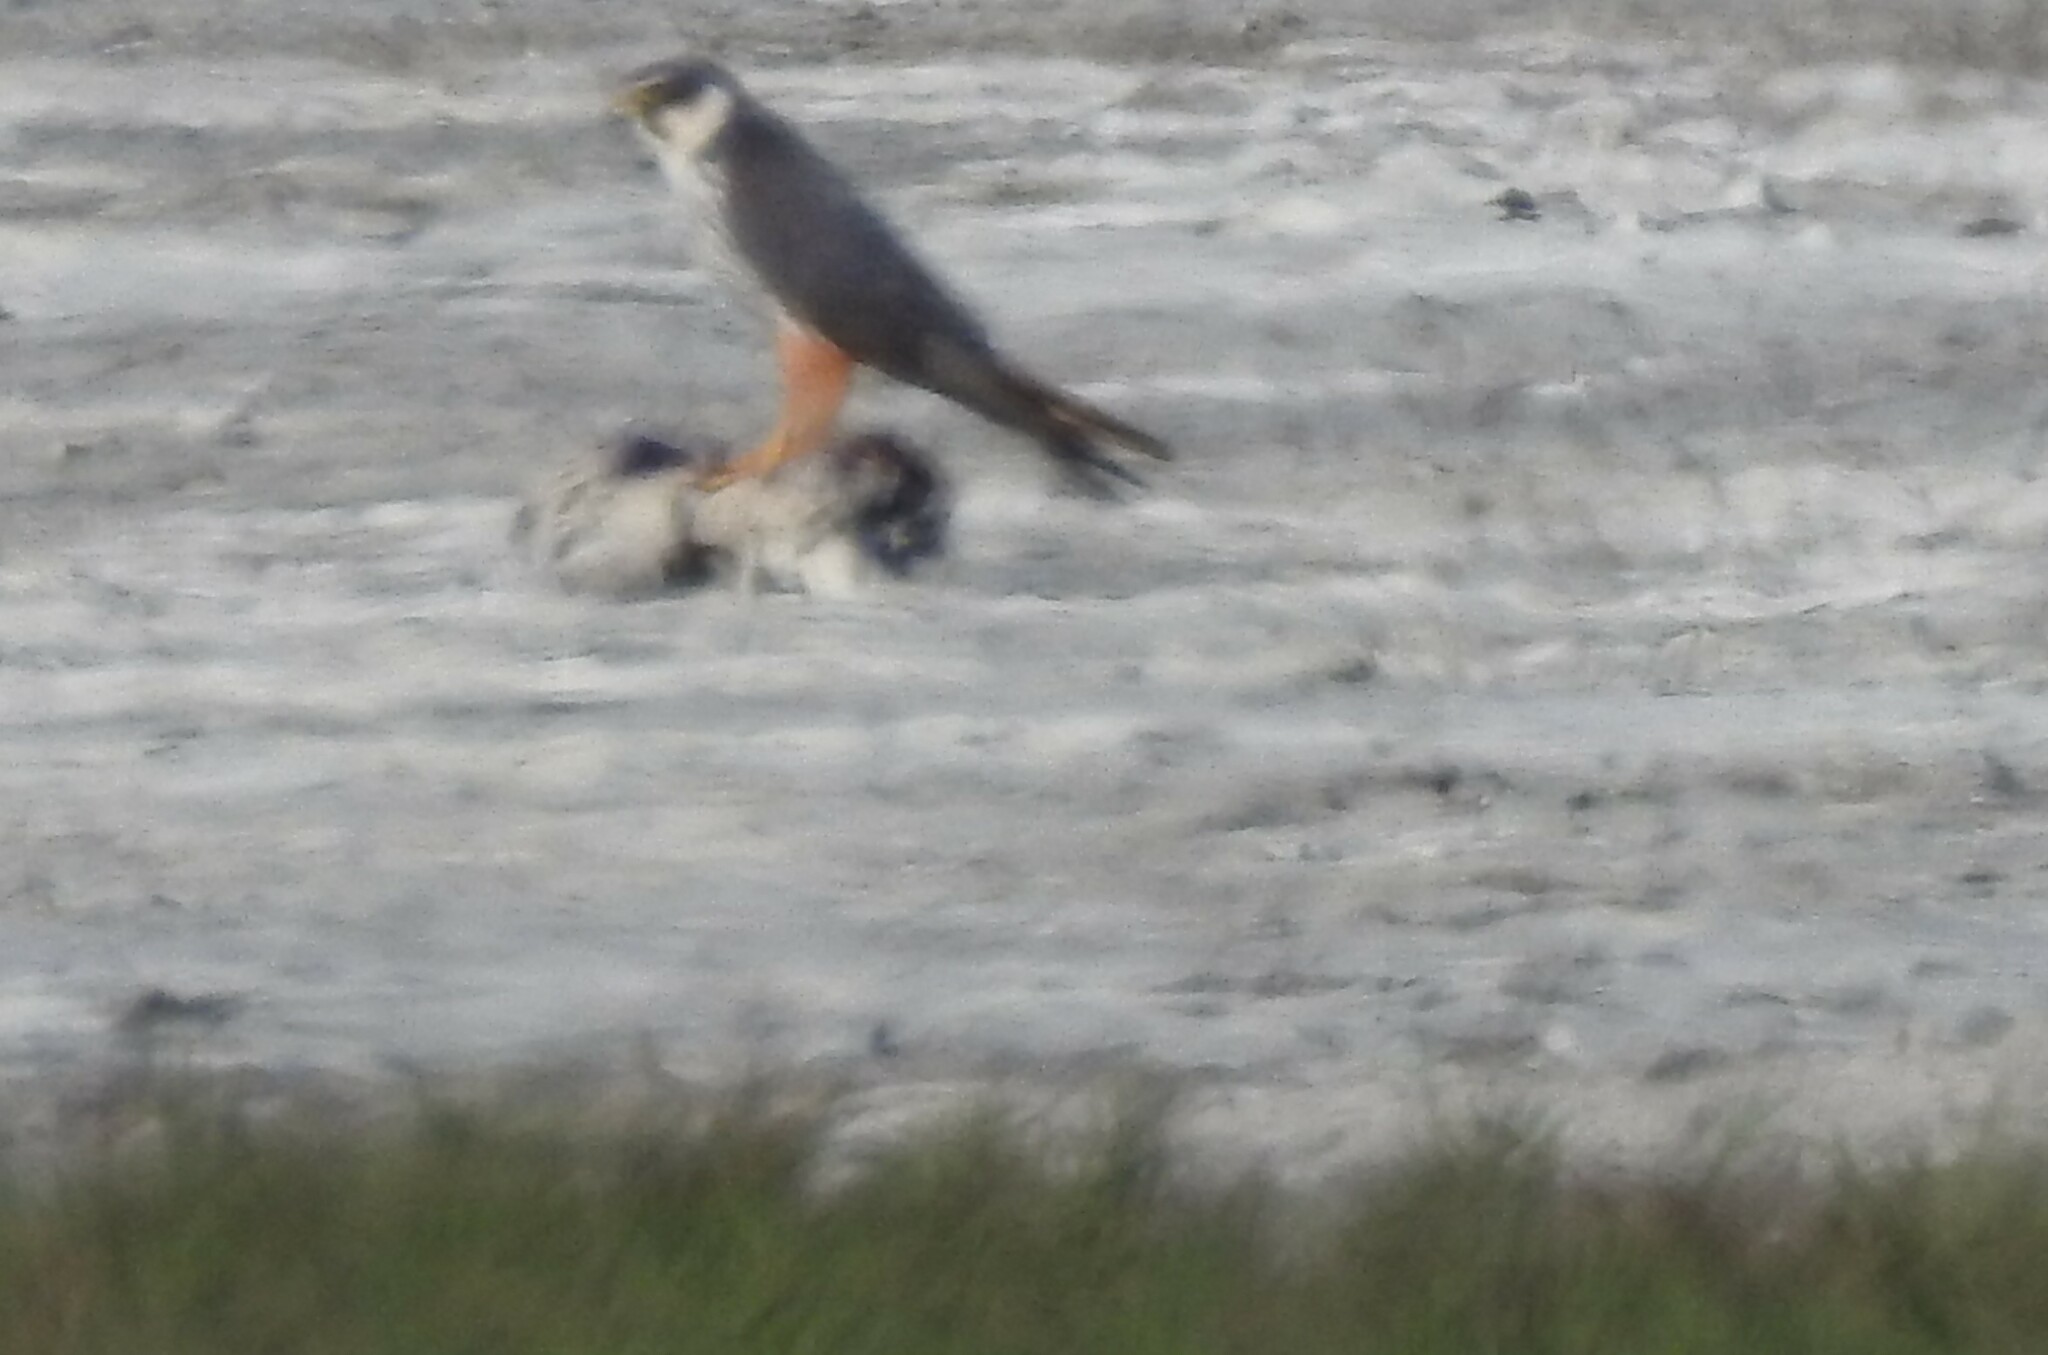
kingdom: Animalia
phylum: Chordata
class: Aves
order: Falconiformes
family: Falconidae
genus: Falco
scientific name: Falco subbuteo
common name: Eurasian hobby
